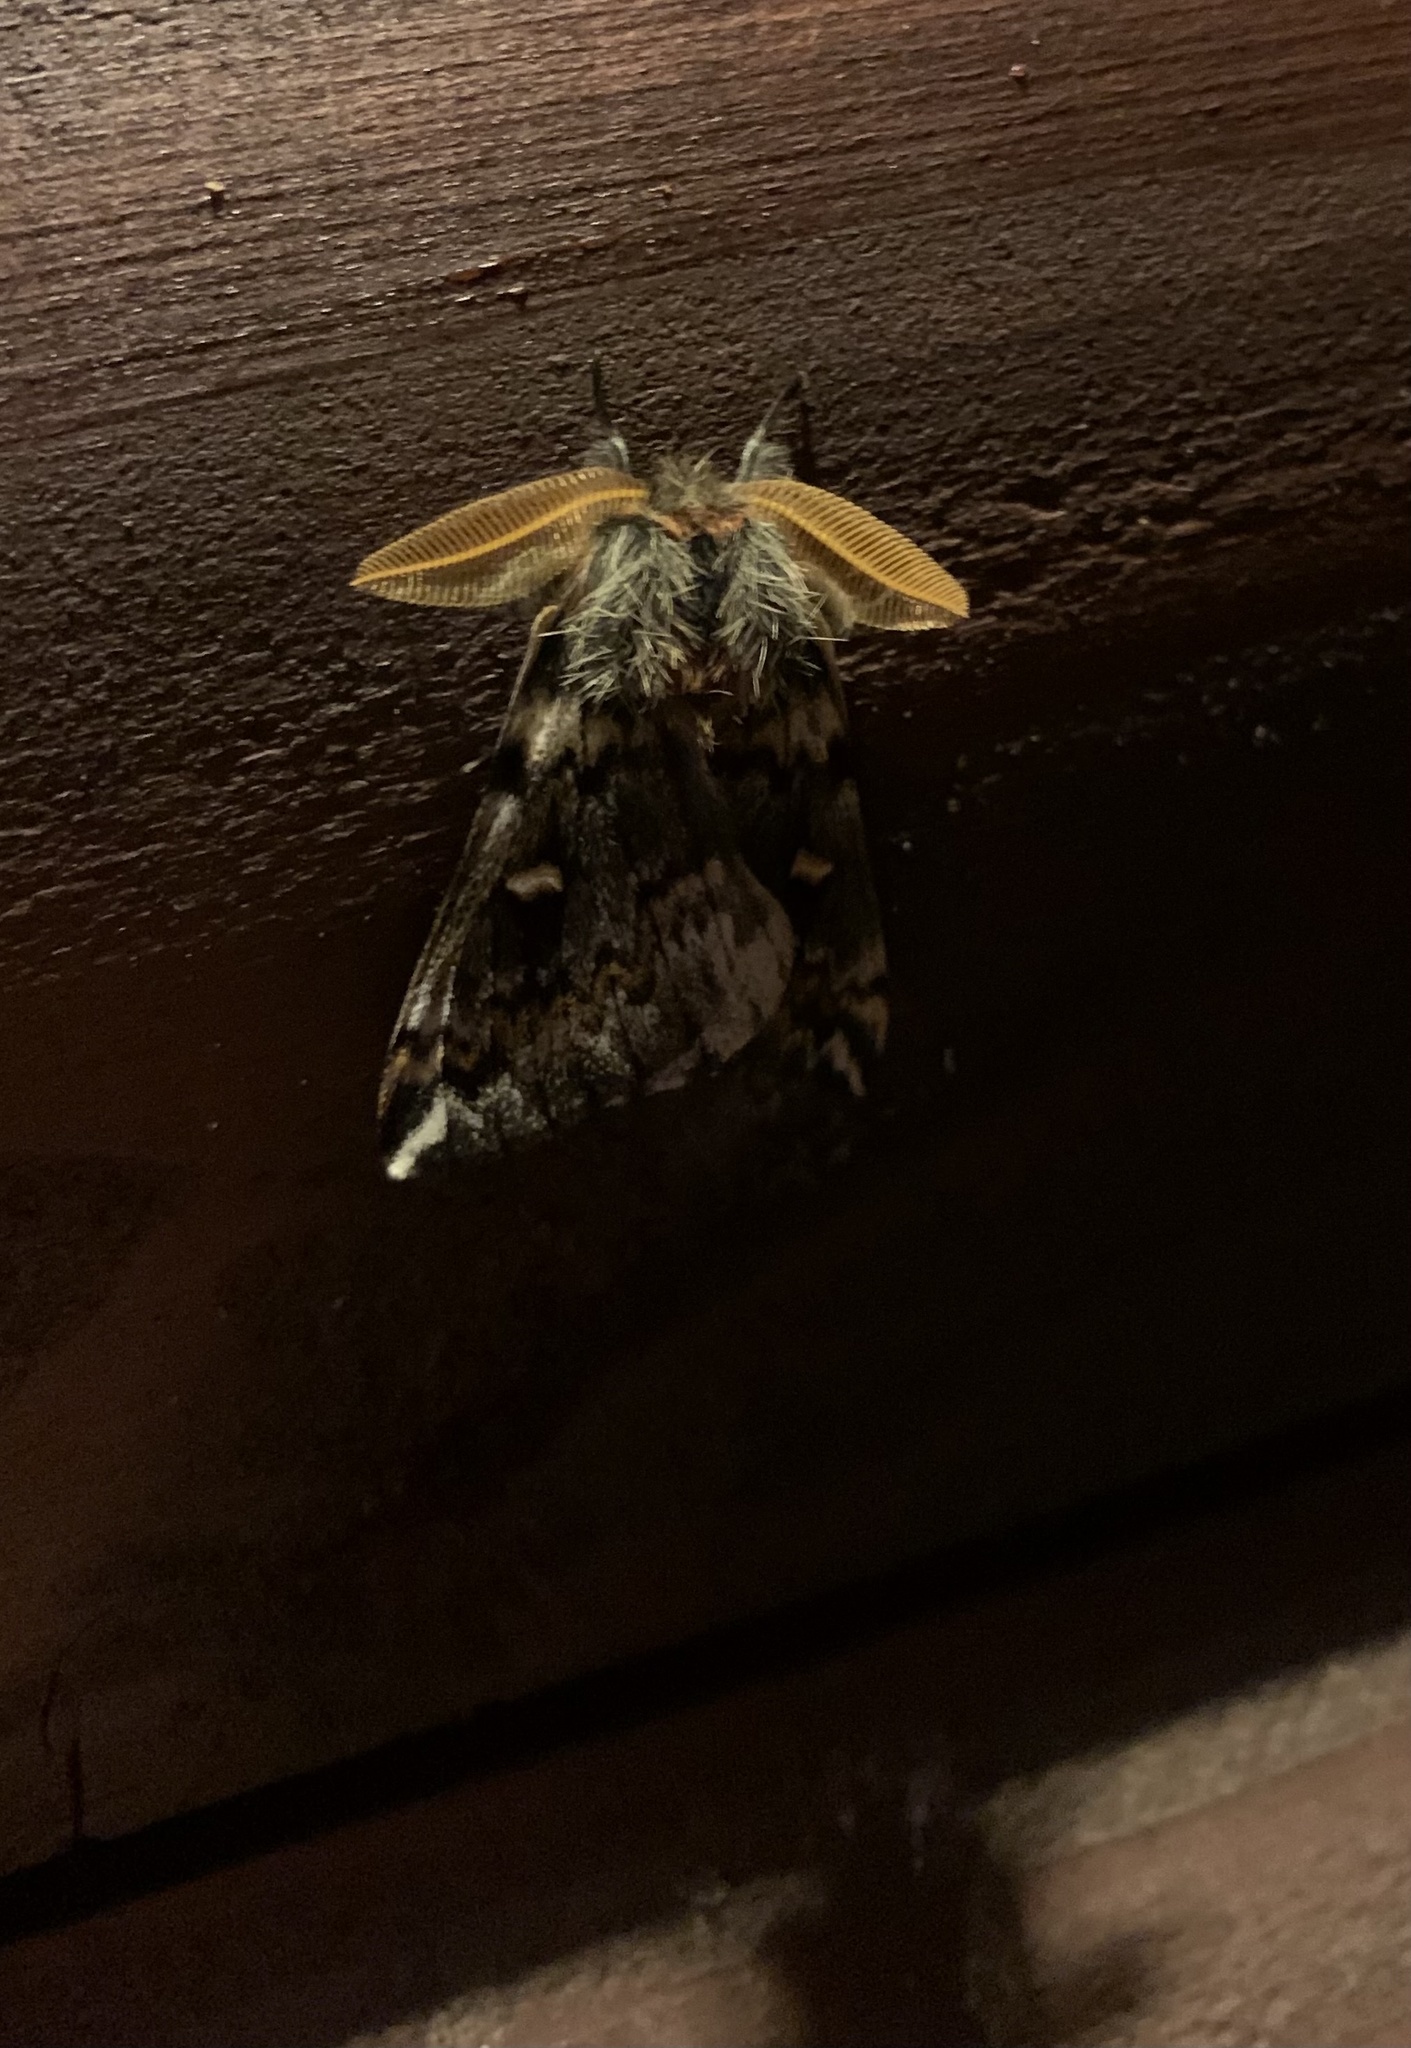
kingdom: Animalia
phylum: Arthropoda
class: Insecta
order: Lepidoptera
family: Saturniidae
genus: Ormiscodes
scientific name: Ormiscodes schmidtnielseni
